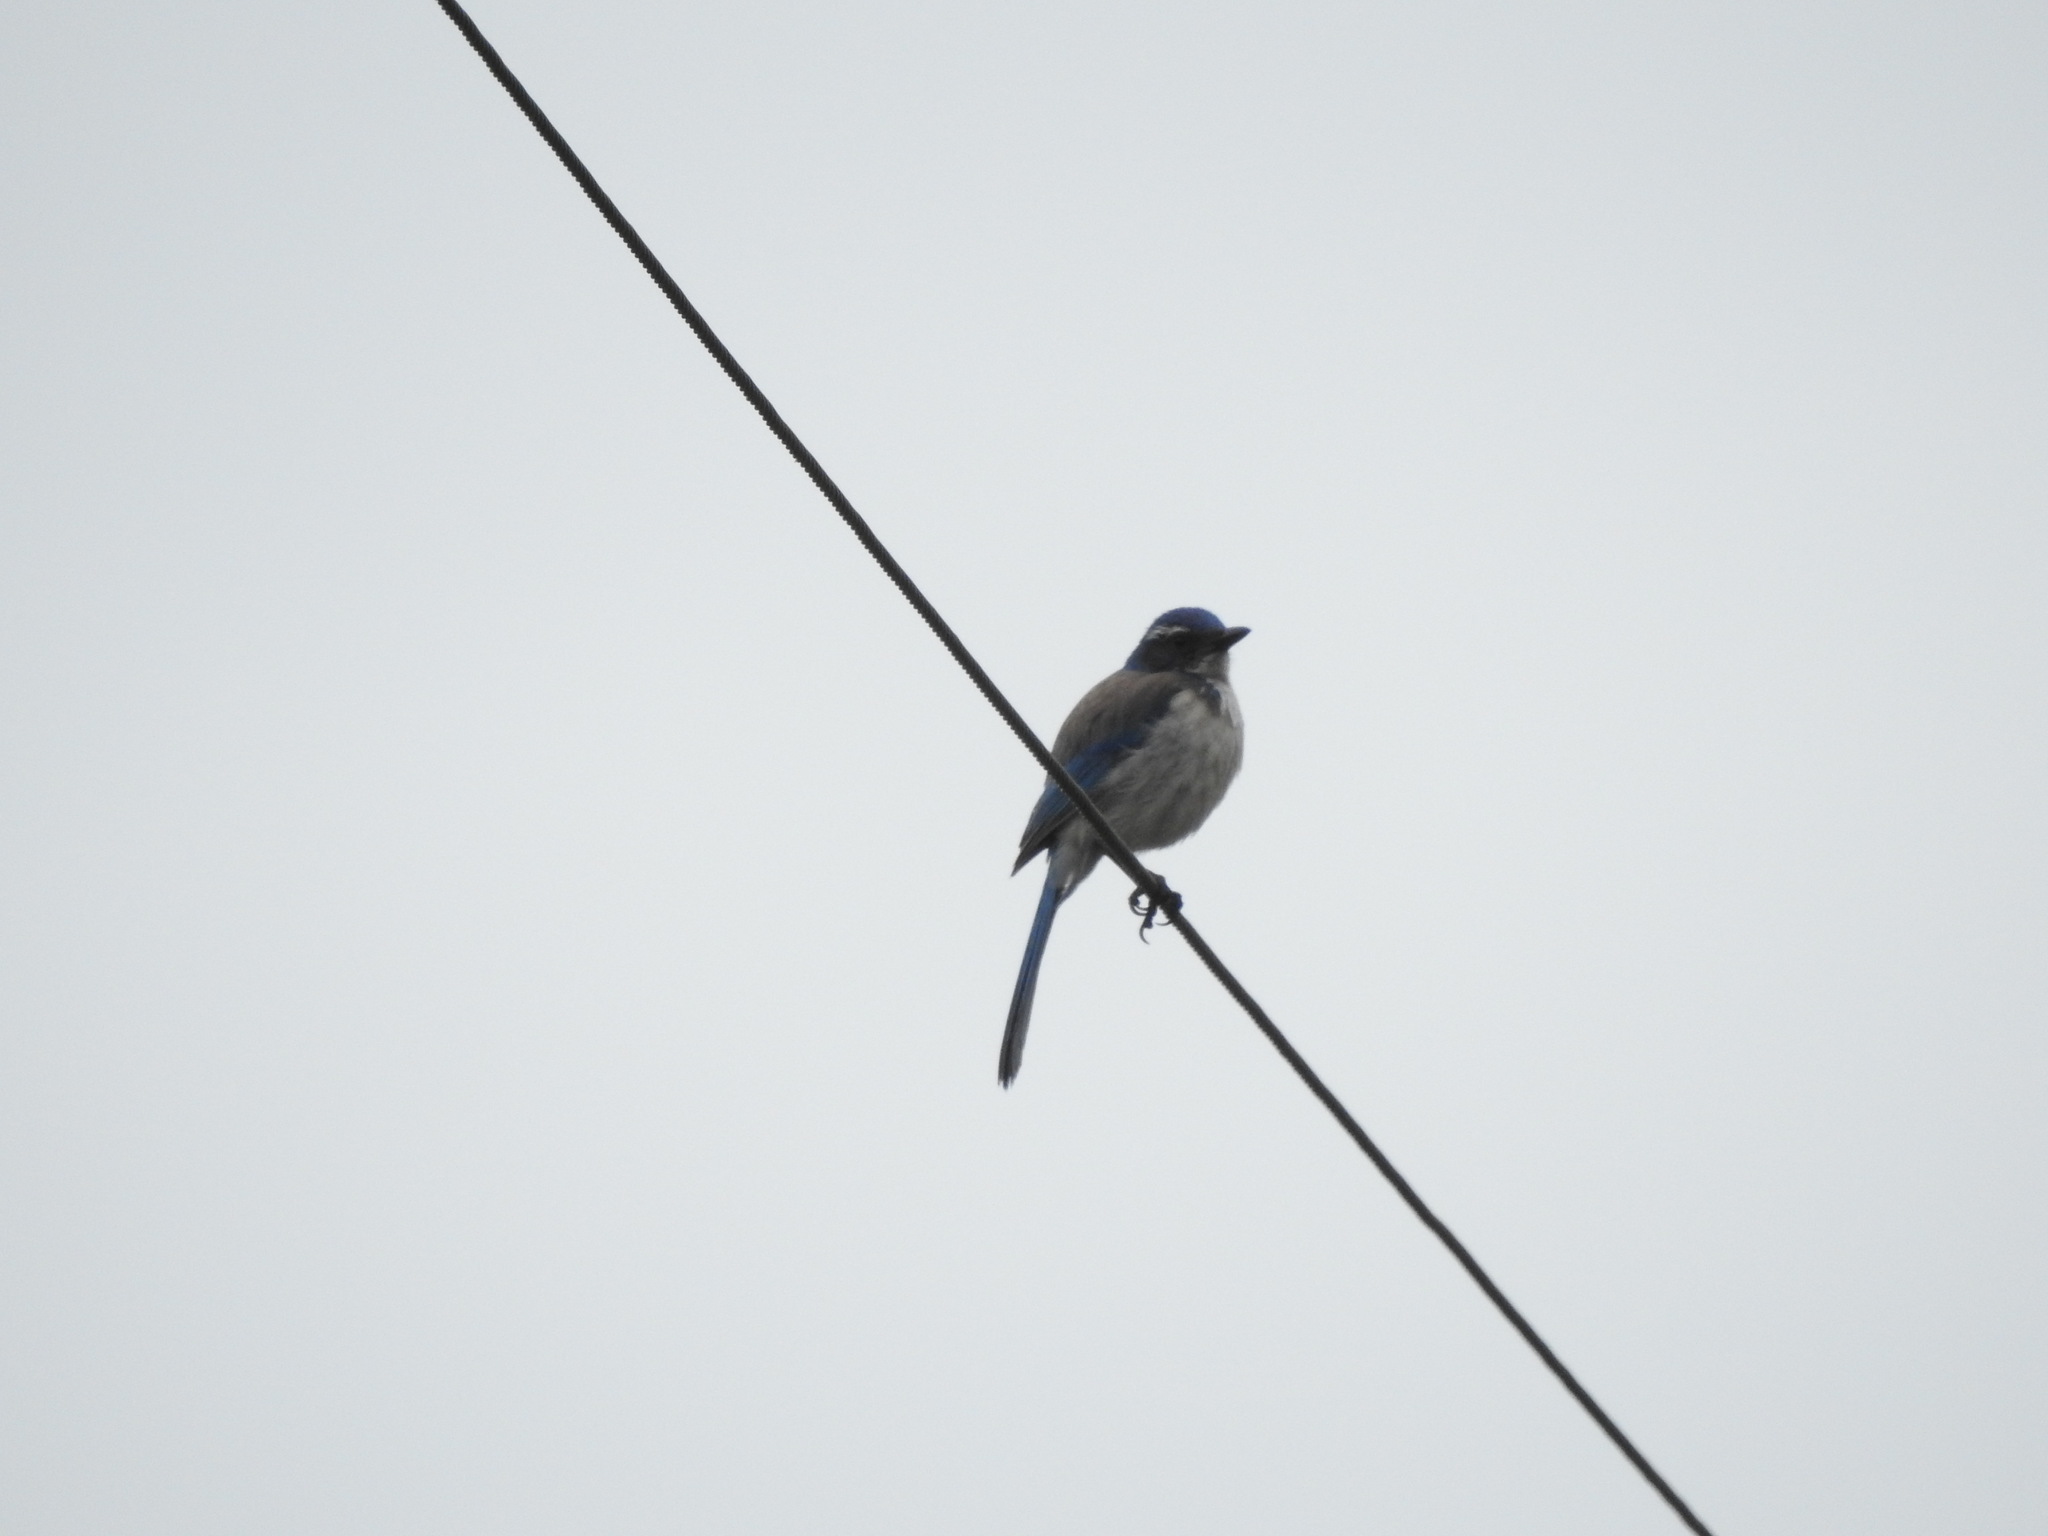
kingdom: Animalia
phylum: Chordata
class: Aves
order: Passeriformes
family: Corvidae
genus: Aphelocoma
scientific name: Aphelocoma californica
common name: California scrub-jay
